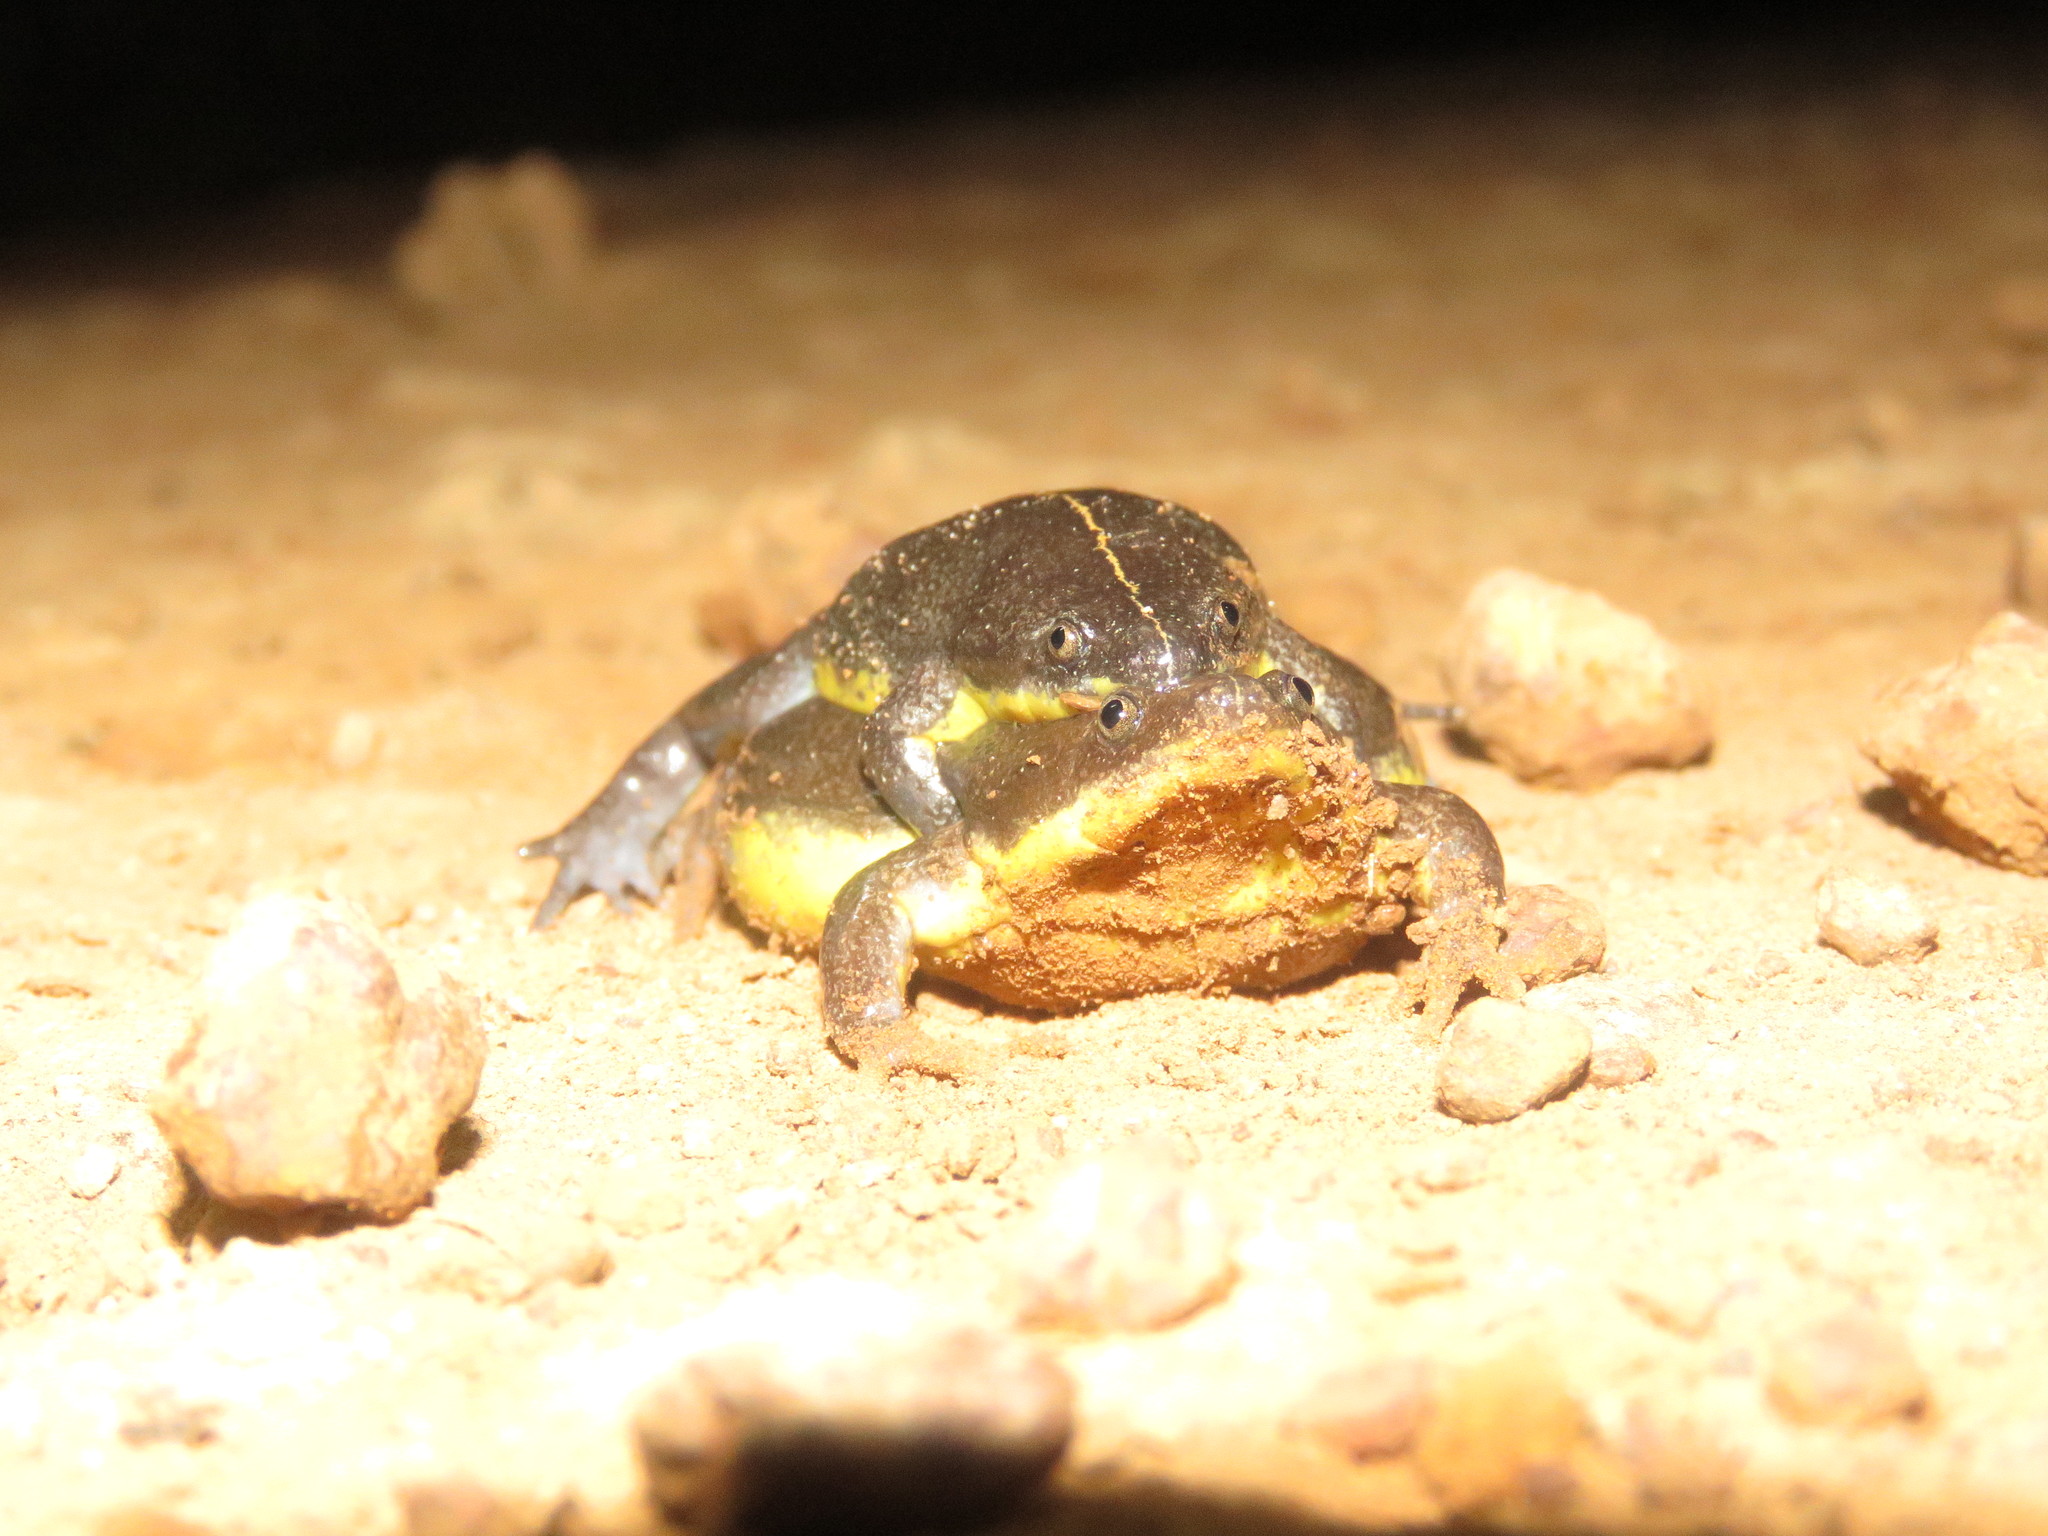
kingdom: Animalia
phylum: Chordata
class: Amphibia
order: Anura
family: Microhylidae
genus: Elachistocleis
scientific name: Elachistocleis helianneae
